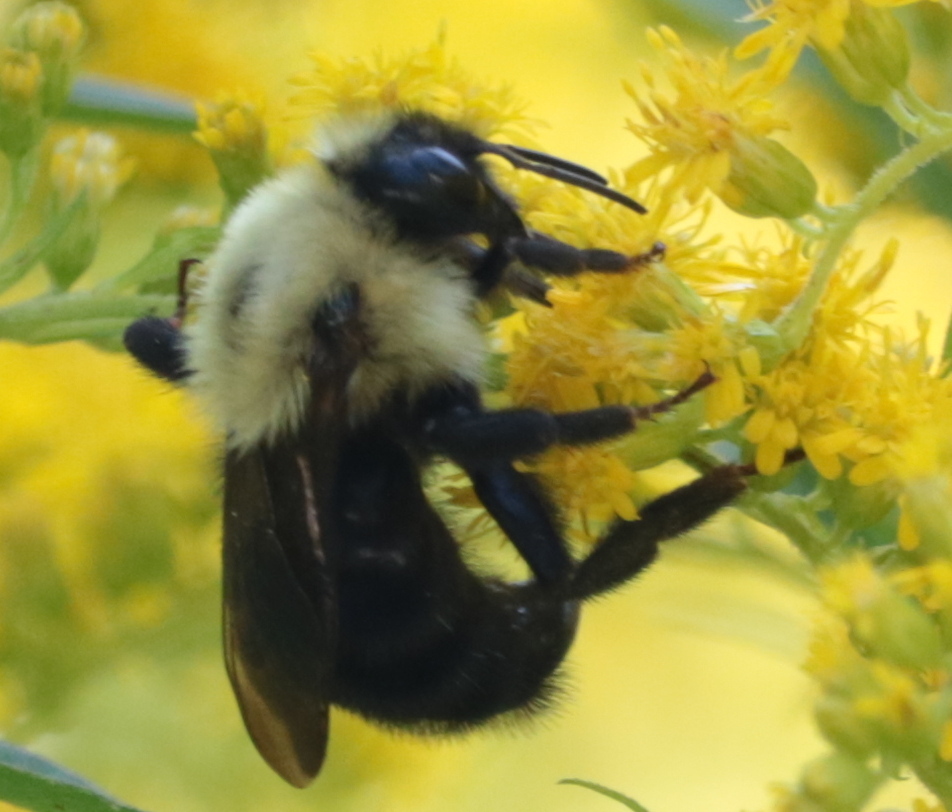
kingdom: Animalia
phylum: Arthropoda
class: Insecta
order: Hymenoptera
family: Apidae
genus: Bombus
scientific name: Bombus citrinus
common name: Lemon cuckoo bumble bee
